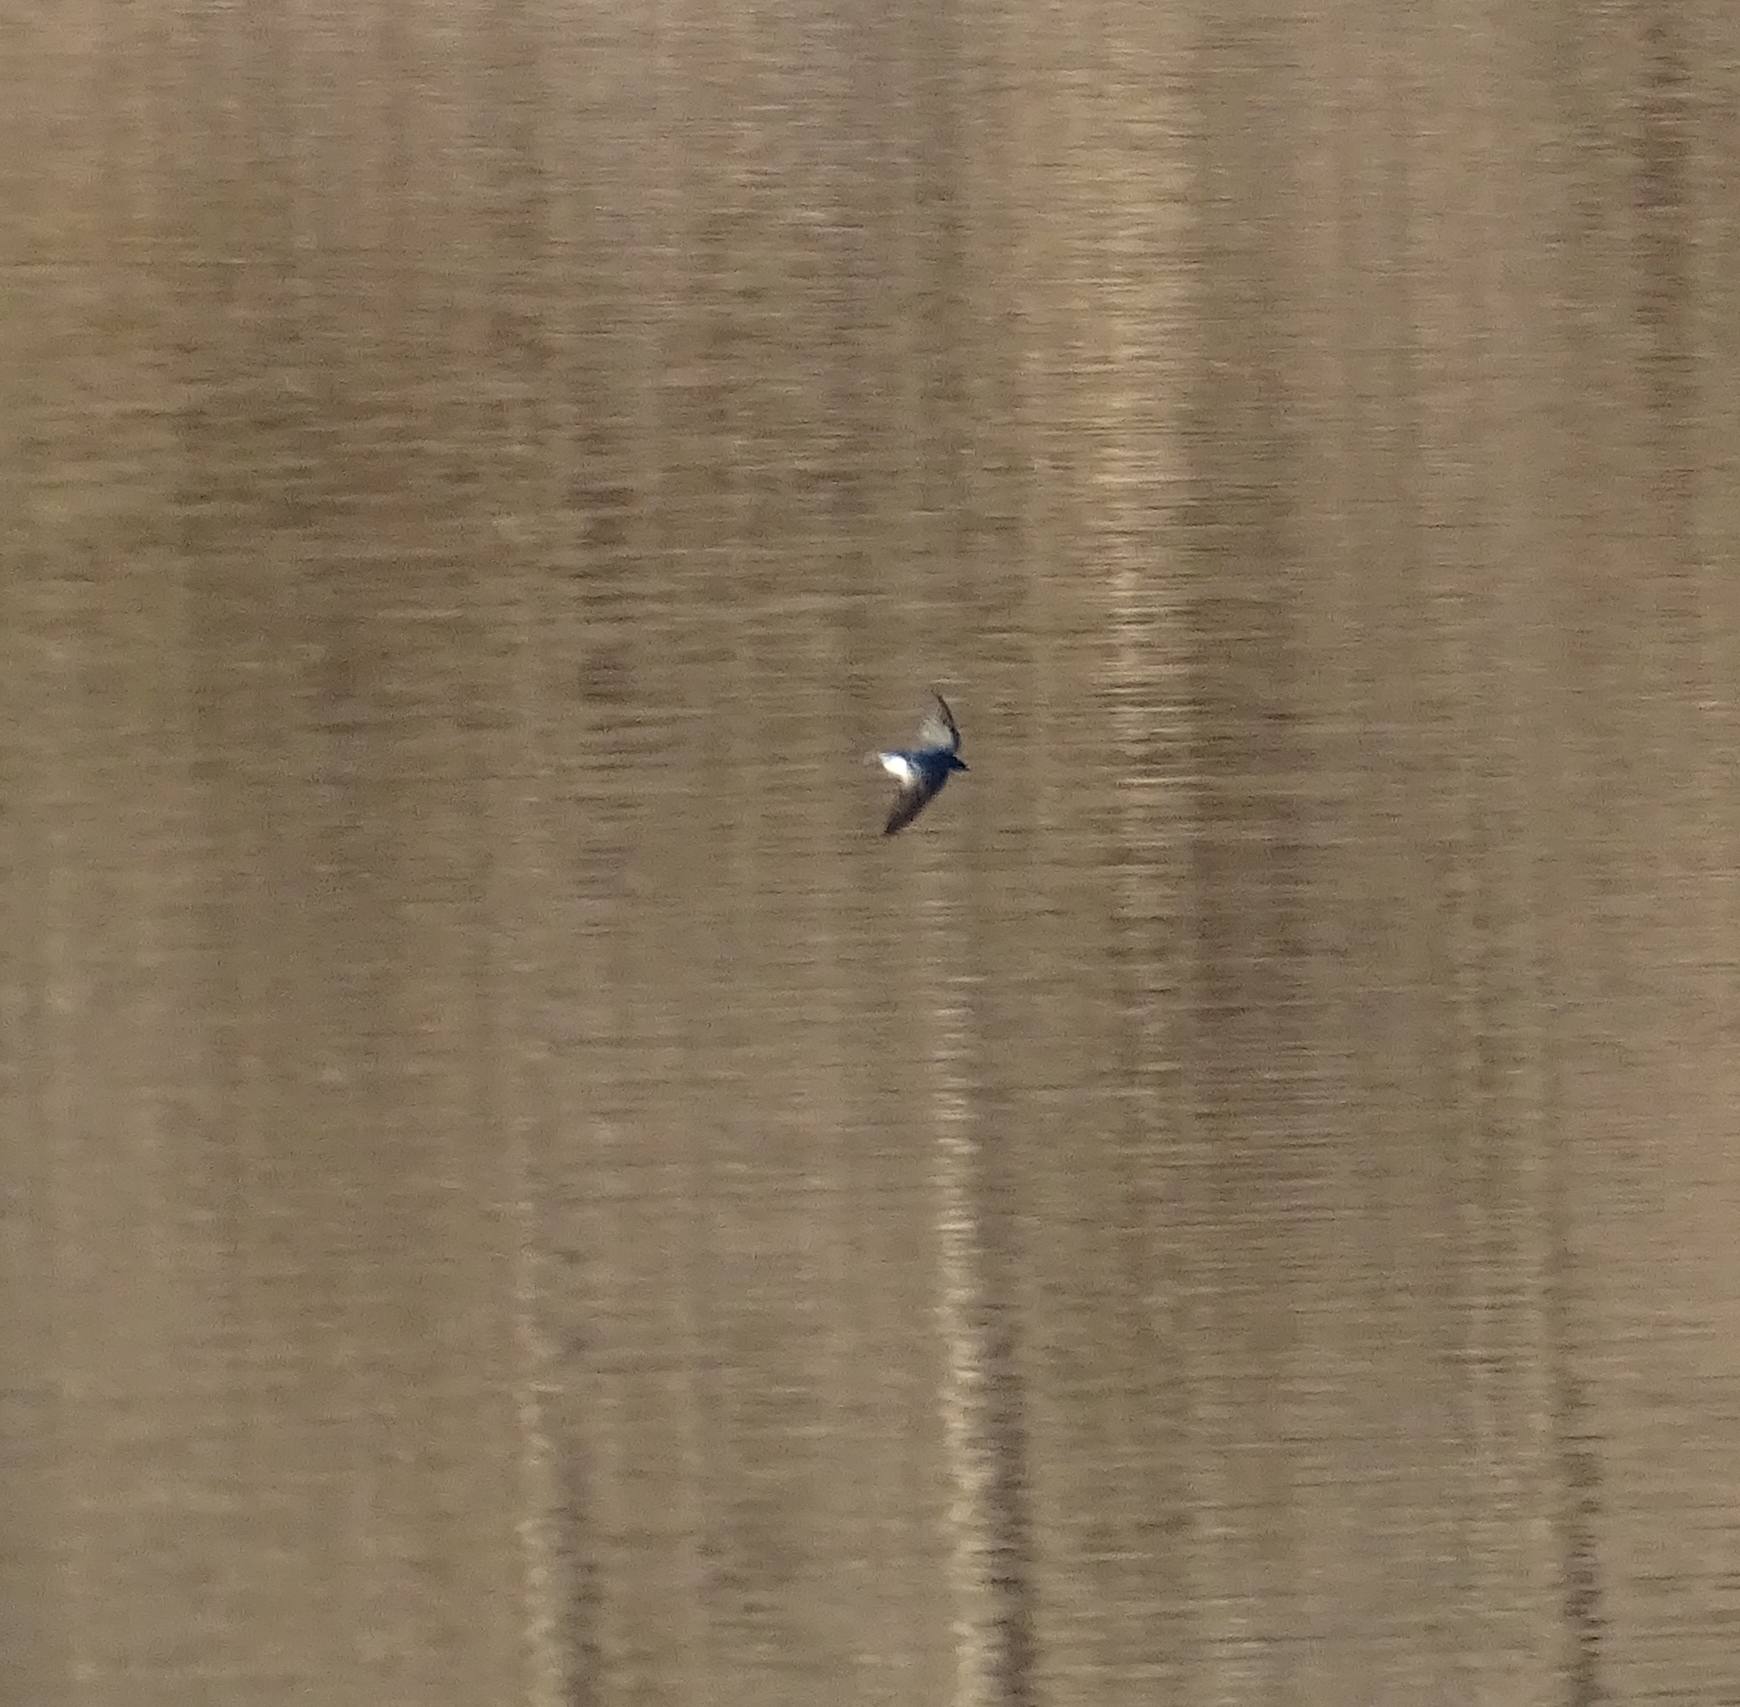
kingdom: Animalia
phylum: Chordata
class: Aves
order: Passeriformes
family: Hirundinidae
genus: Tachycineta
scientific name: Tachycineta bicolor
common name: Tree swallow
